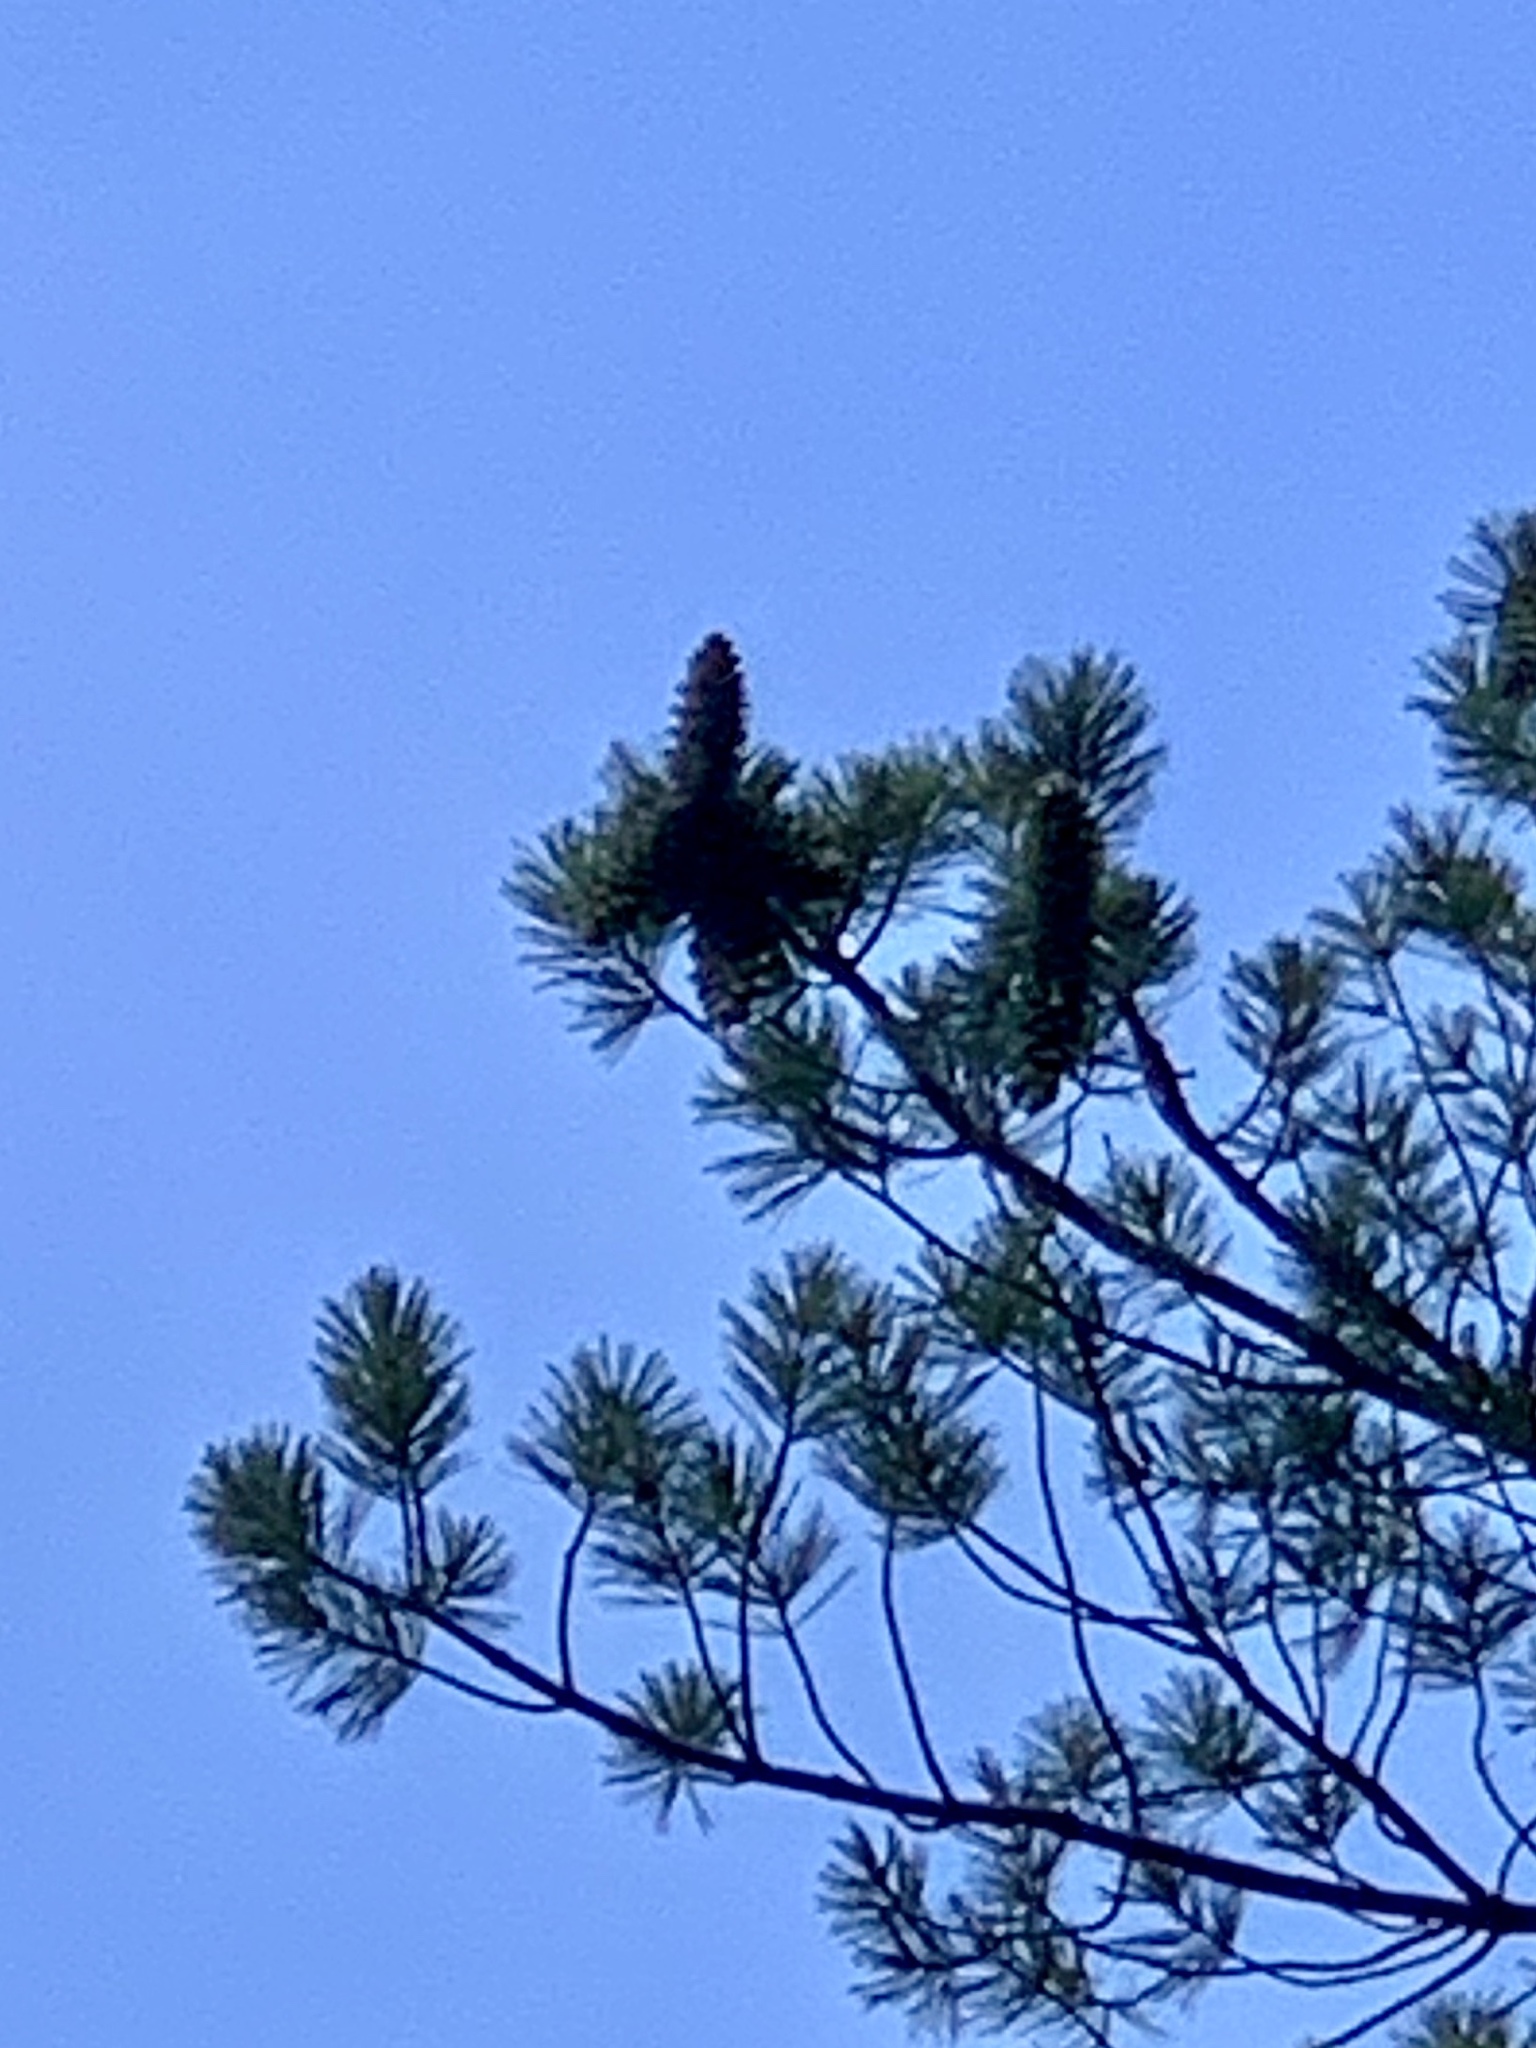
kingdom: Plantae
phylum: Tracheophyta
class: Pinopsida
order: Pinales
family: Pinaceae
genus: Pinus
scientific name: Pinus strobiformis
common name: Southwestern white pine
